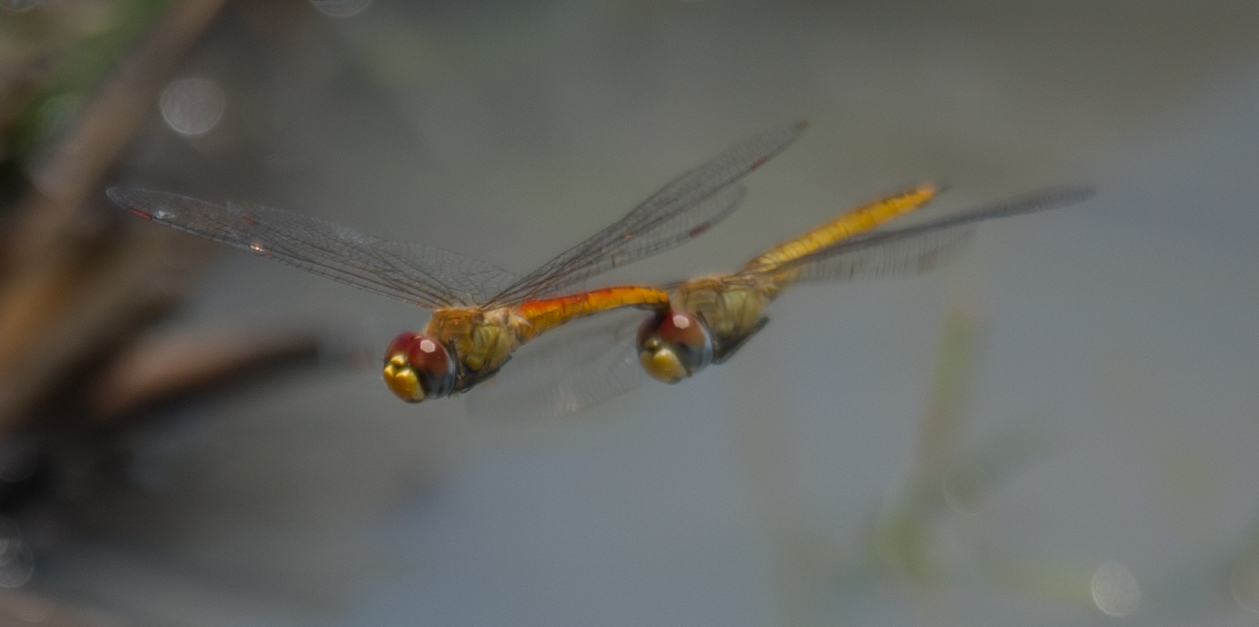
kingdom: Animalia
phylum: Arthropoda
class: Insecta
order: Odonata
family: Libellulidae
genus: Pantala
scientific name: Pantala flavescens
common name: Wandering glider
